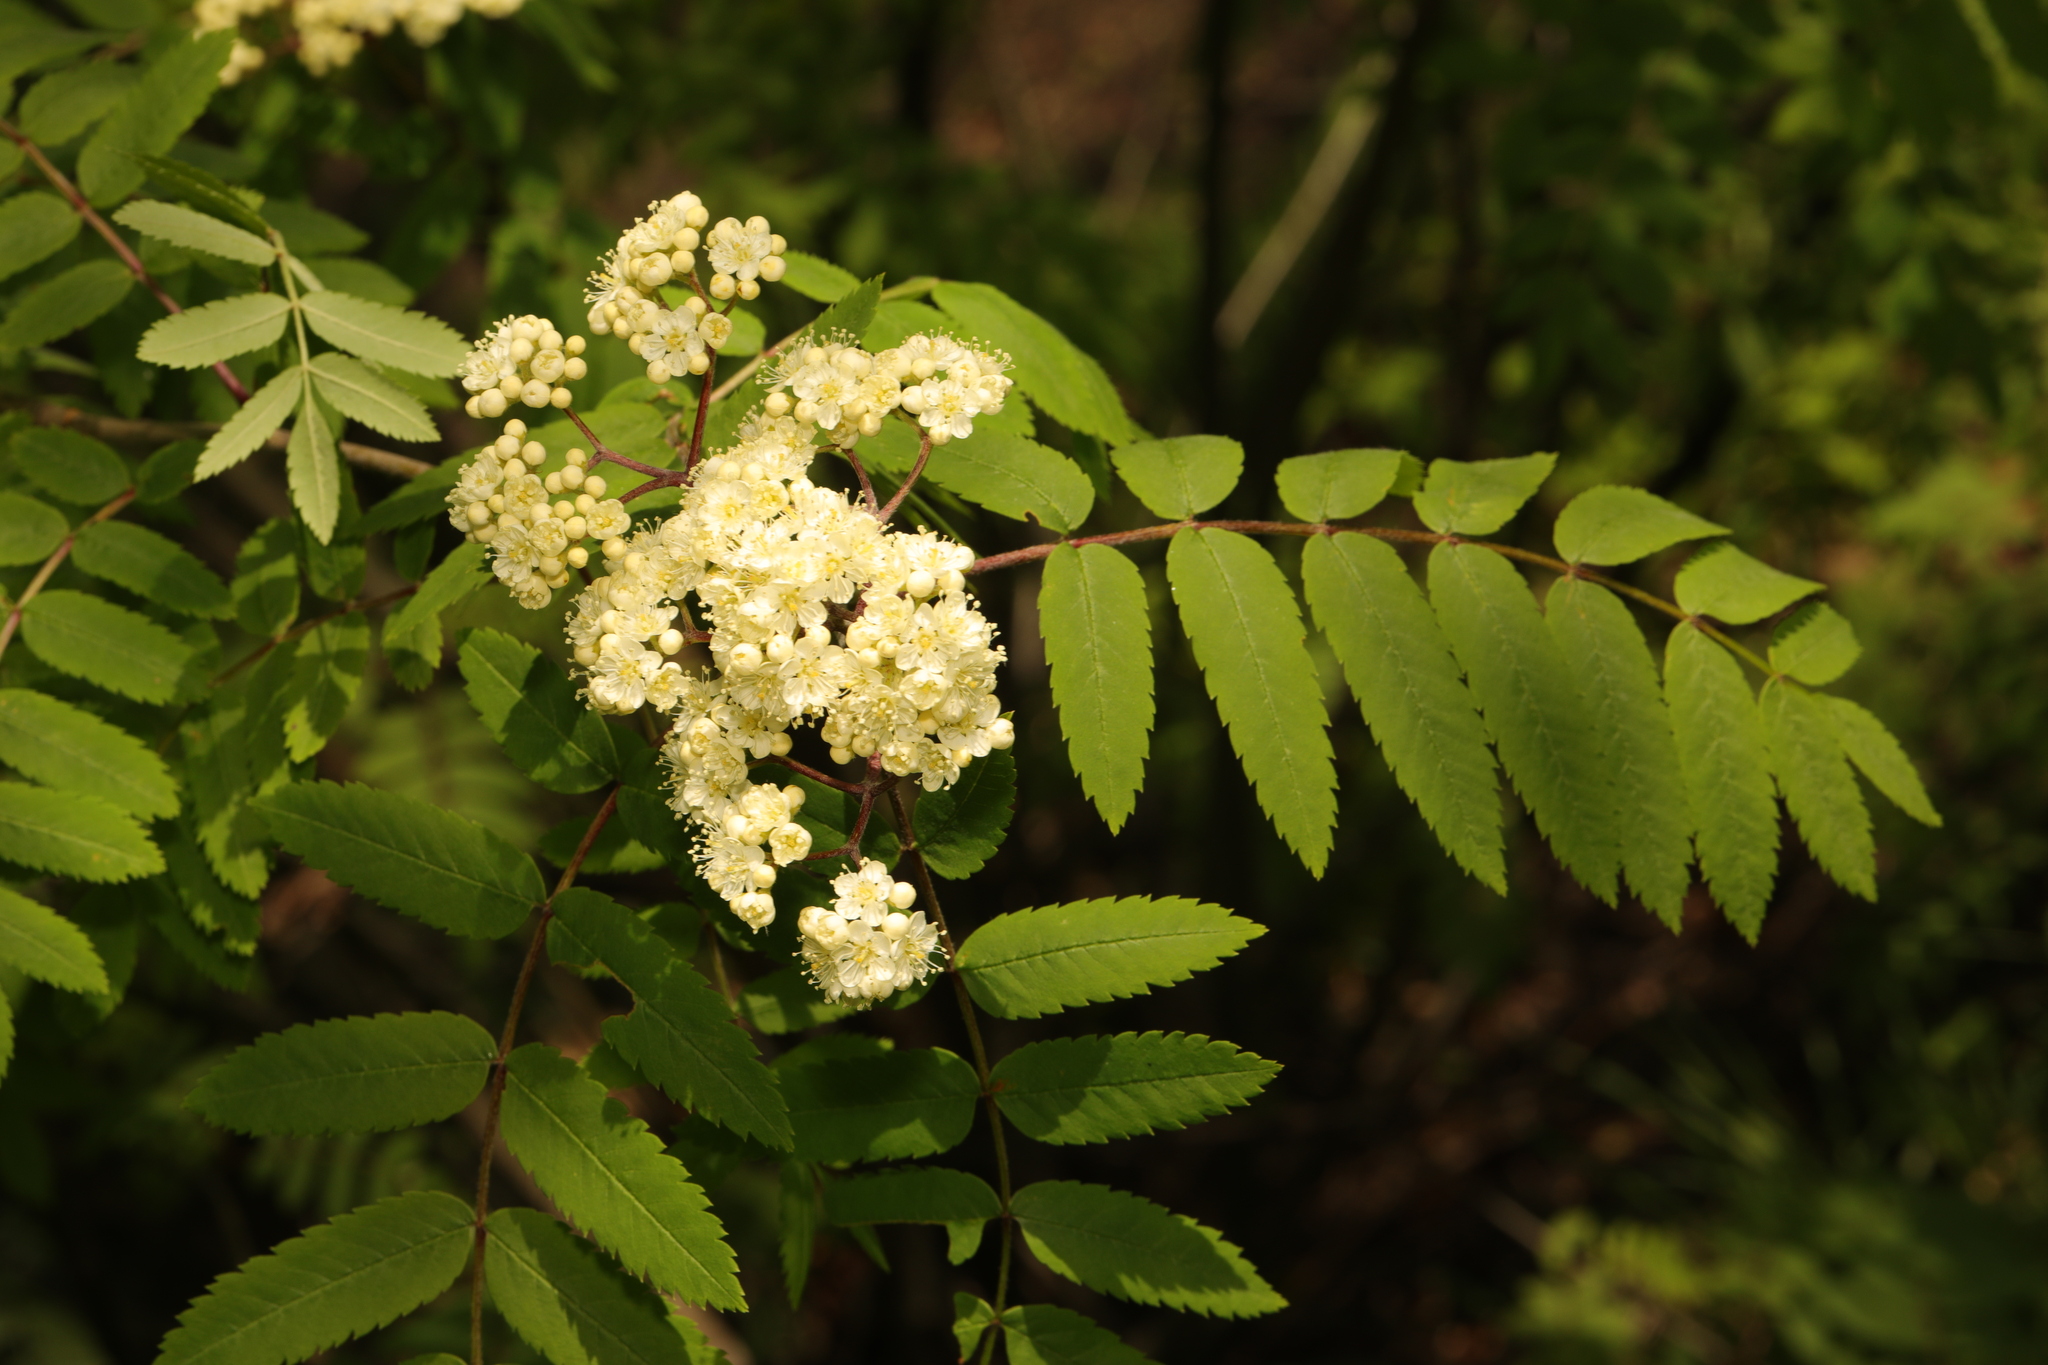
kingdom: Plantae
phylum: Tracheophyta
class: Magnoliopsida
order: Rosales
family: Rosaceae
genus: Sorbus
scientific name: Sorbus aucuparia
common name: Rowan
